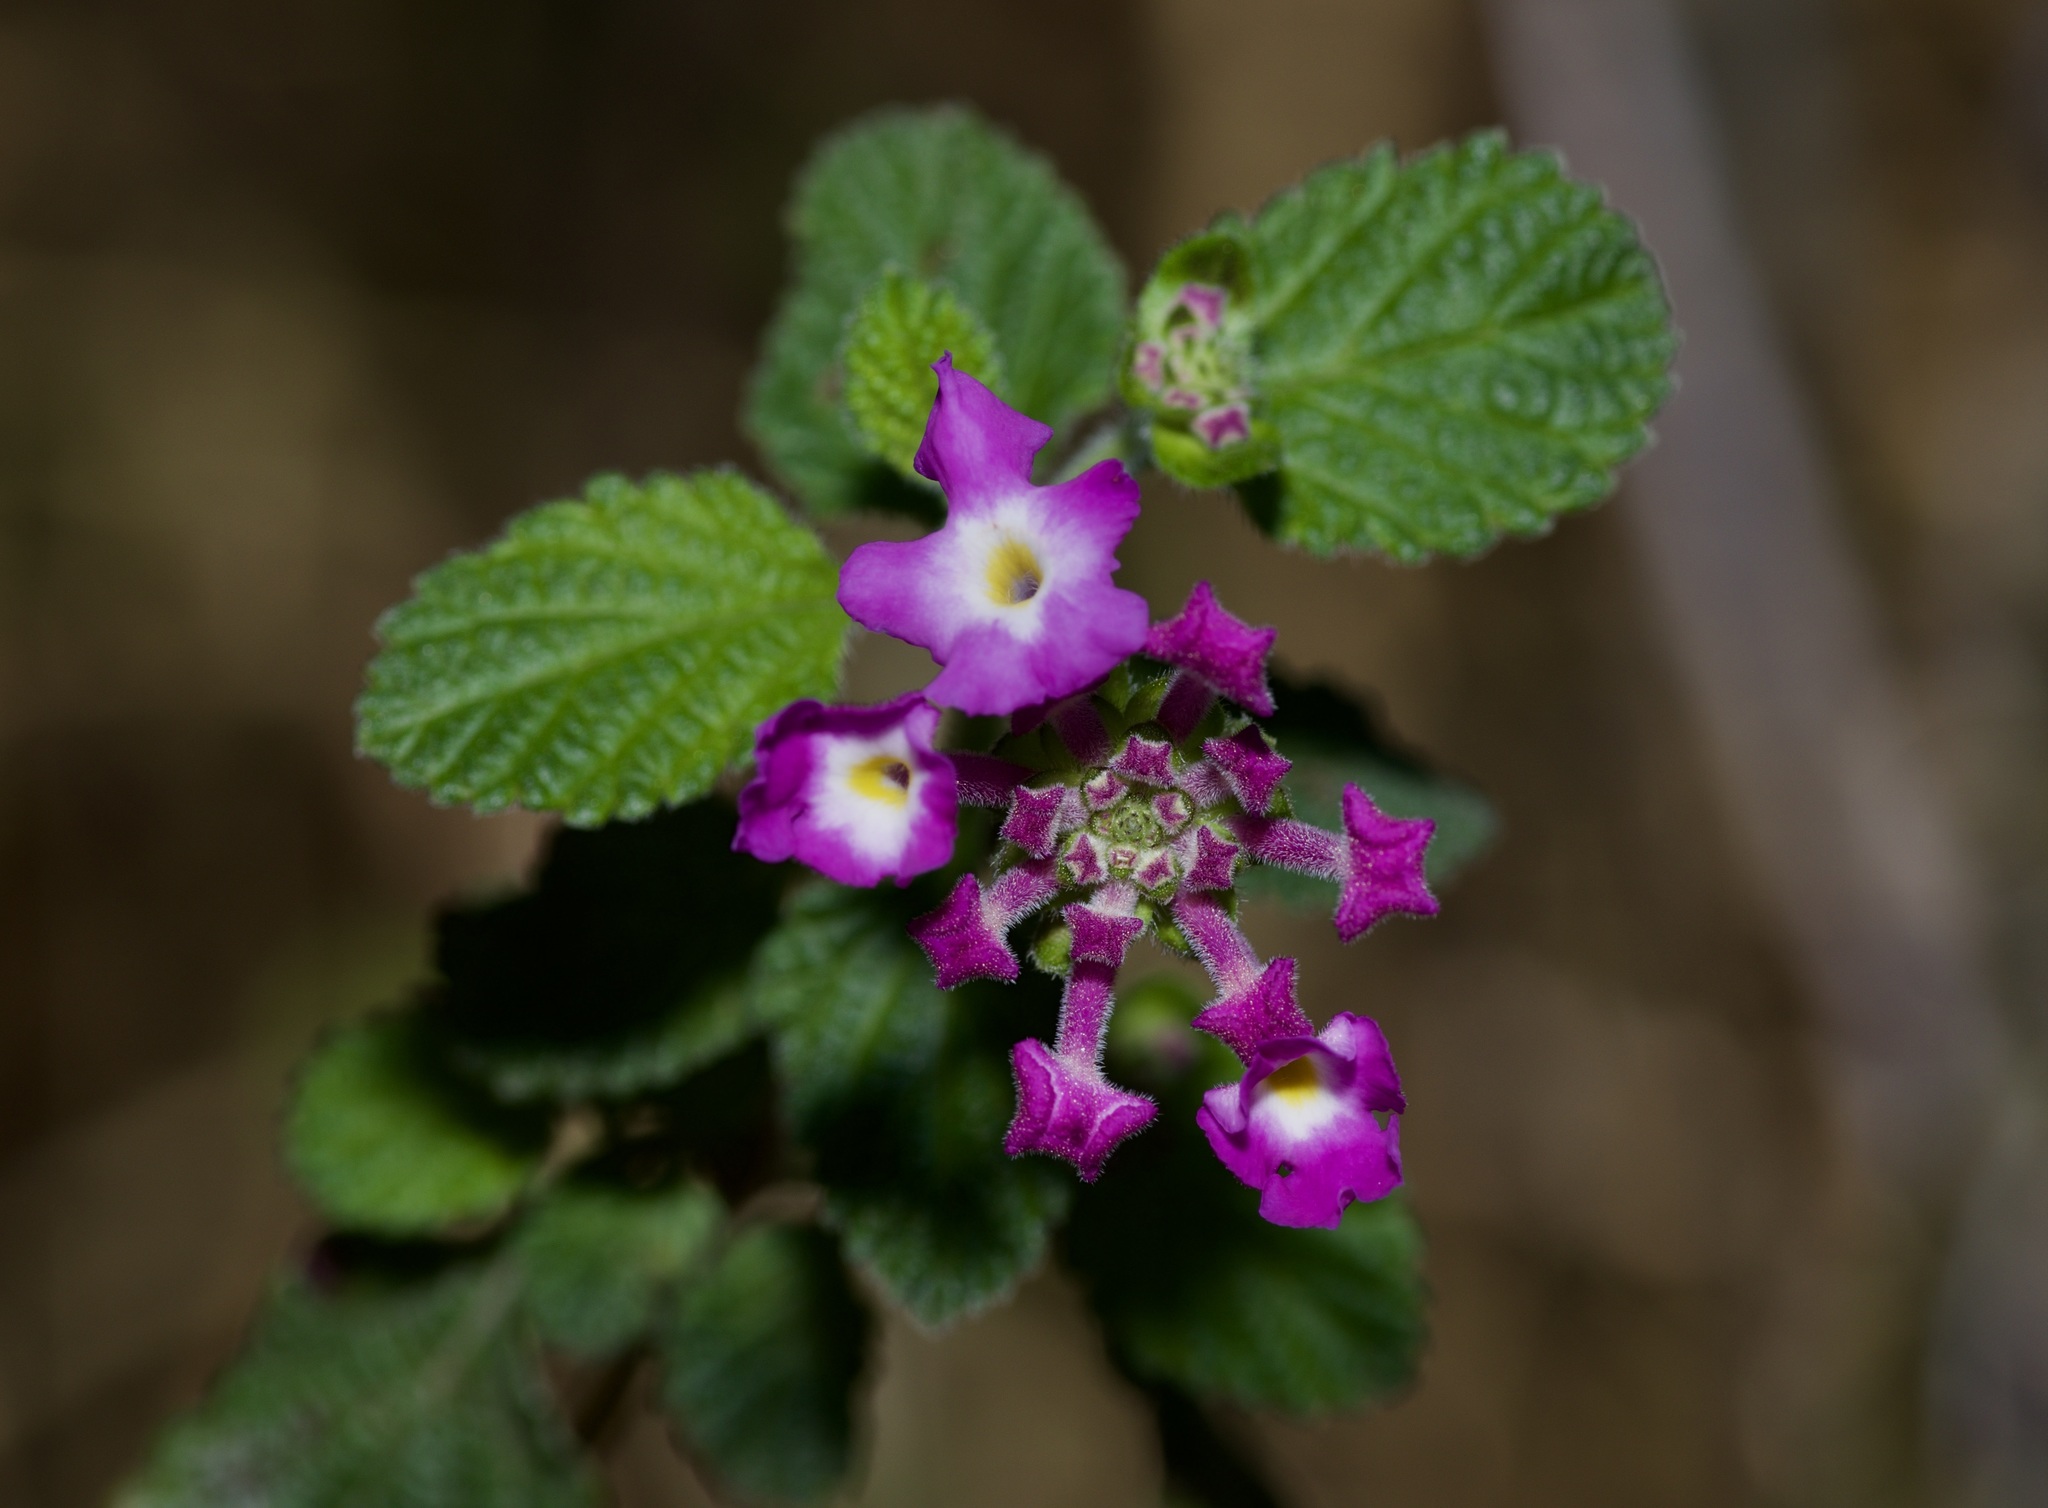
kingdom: Plantae
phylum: Tracheophyta
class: Magnoliopsida
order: Lamiales
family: Verbenaceae
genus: Lantana
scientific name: Lantana montevidensis
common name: Trailing shrubverbena
